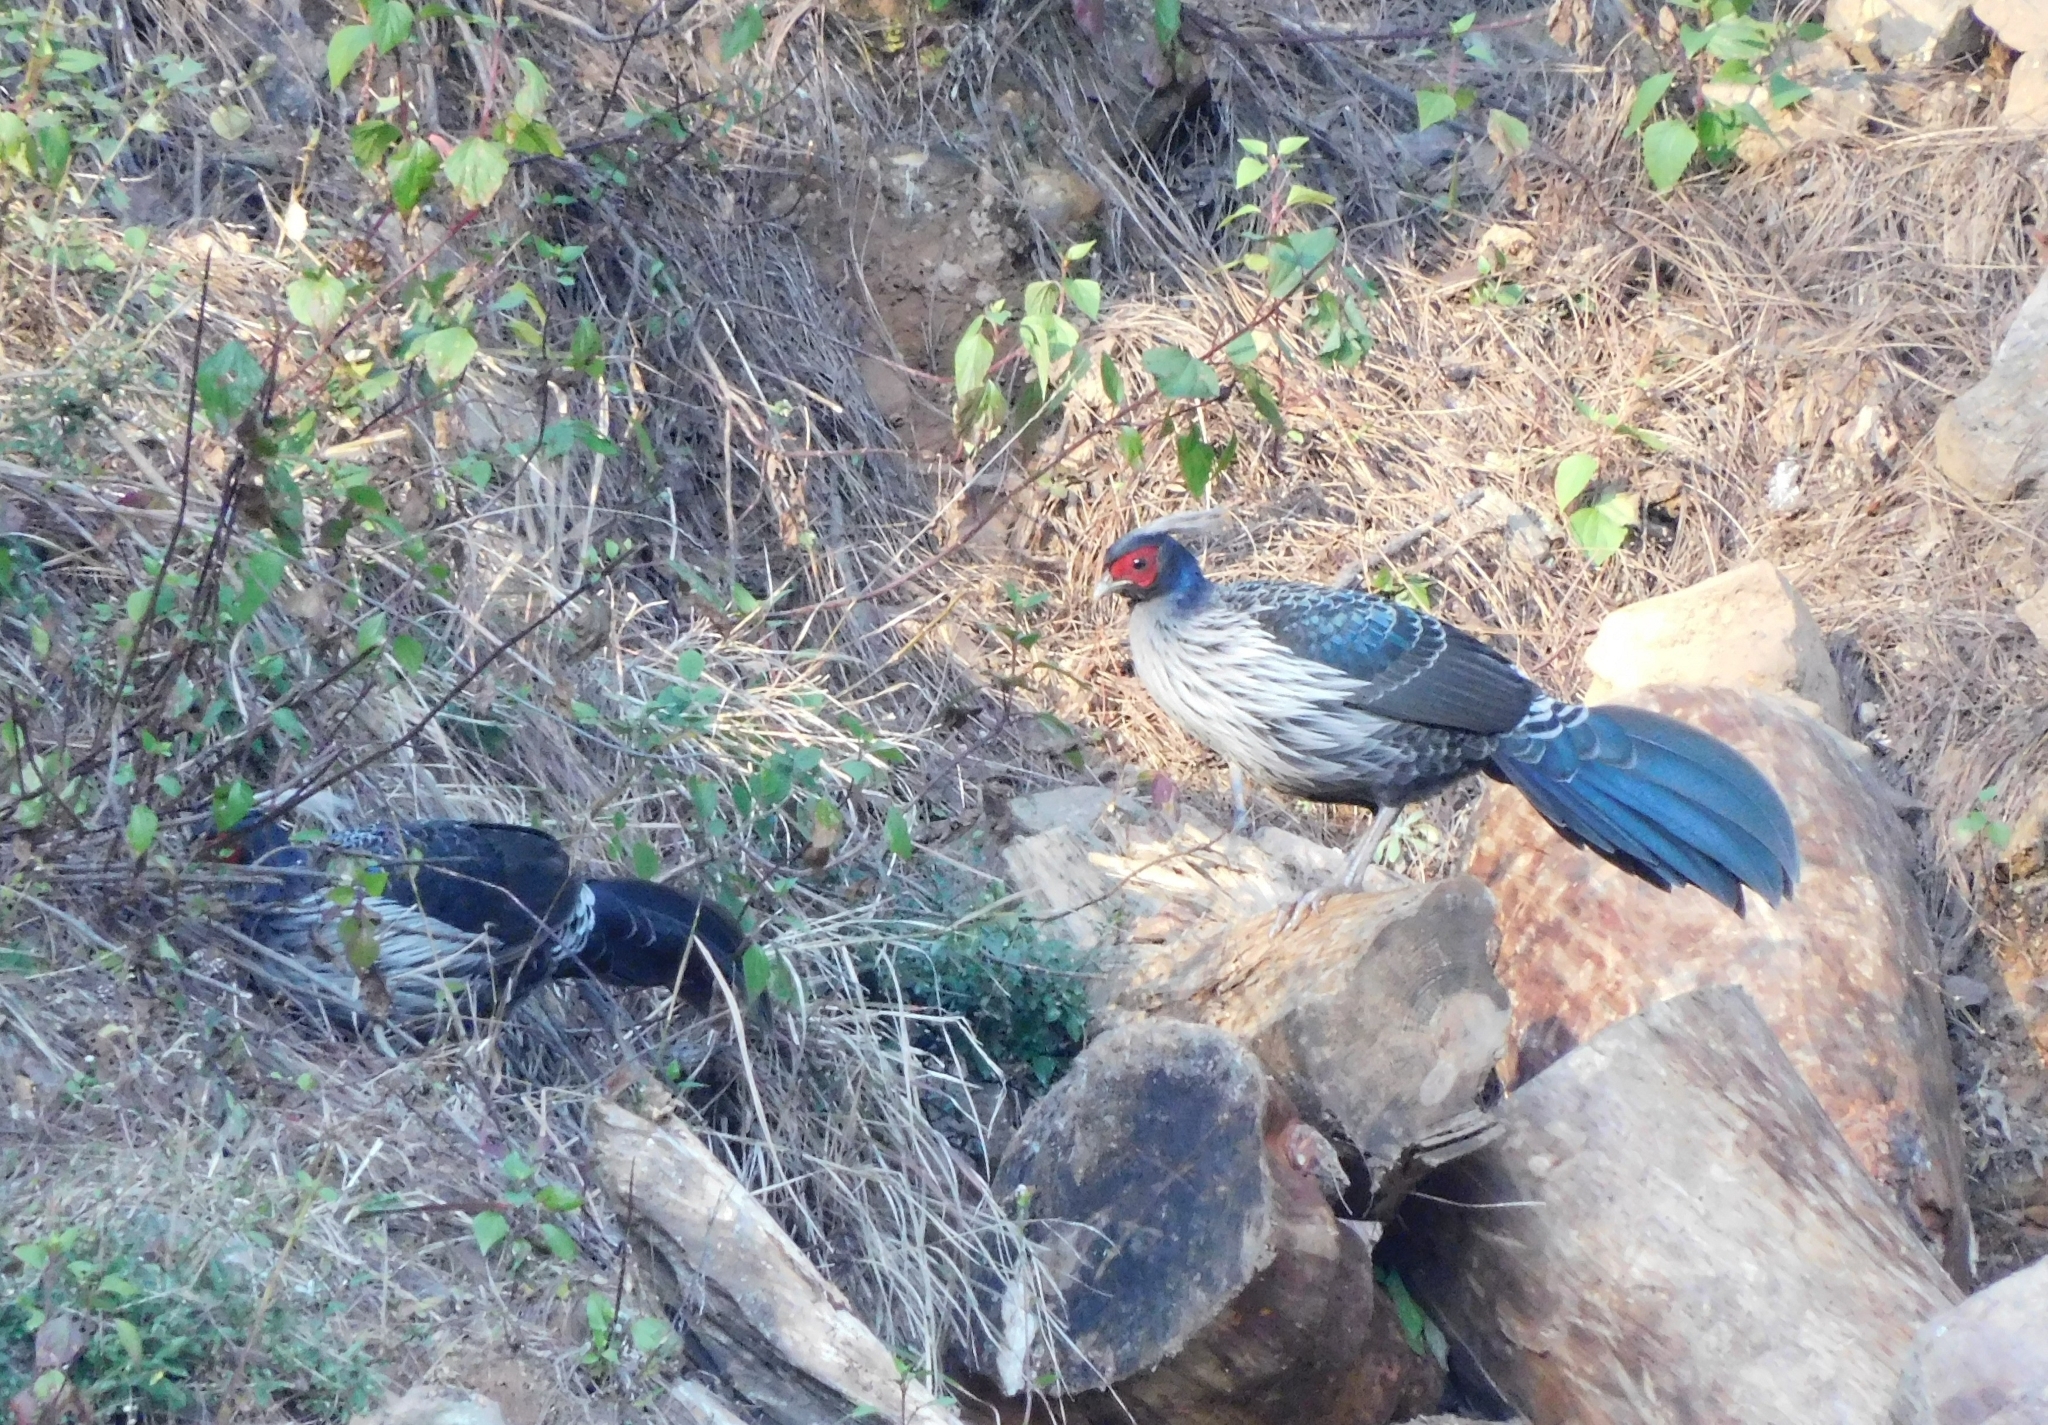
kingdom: Animalia
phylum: Chordata
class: Aves
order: Galliformes
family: Phasianidae
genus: Lophura
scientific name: Lophura leucomelanos
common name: Kalij pheasant
